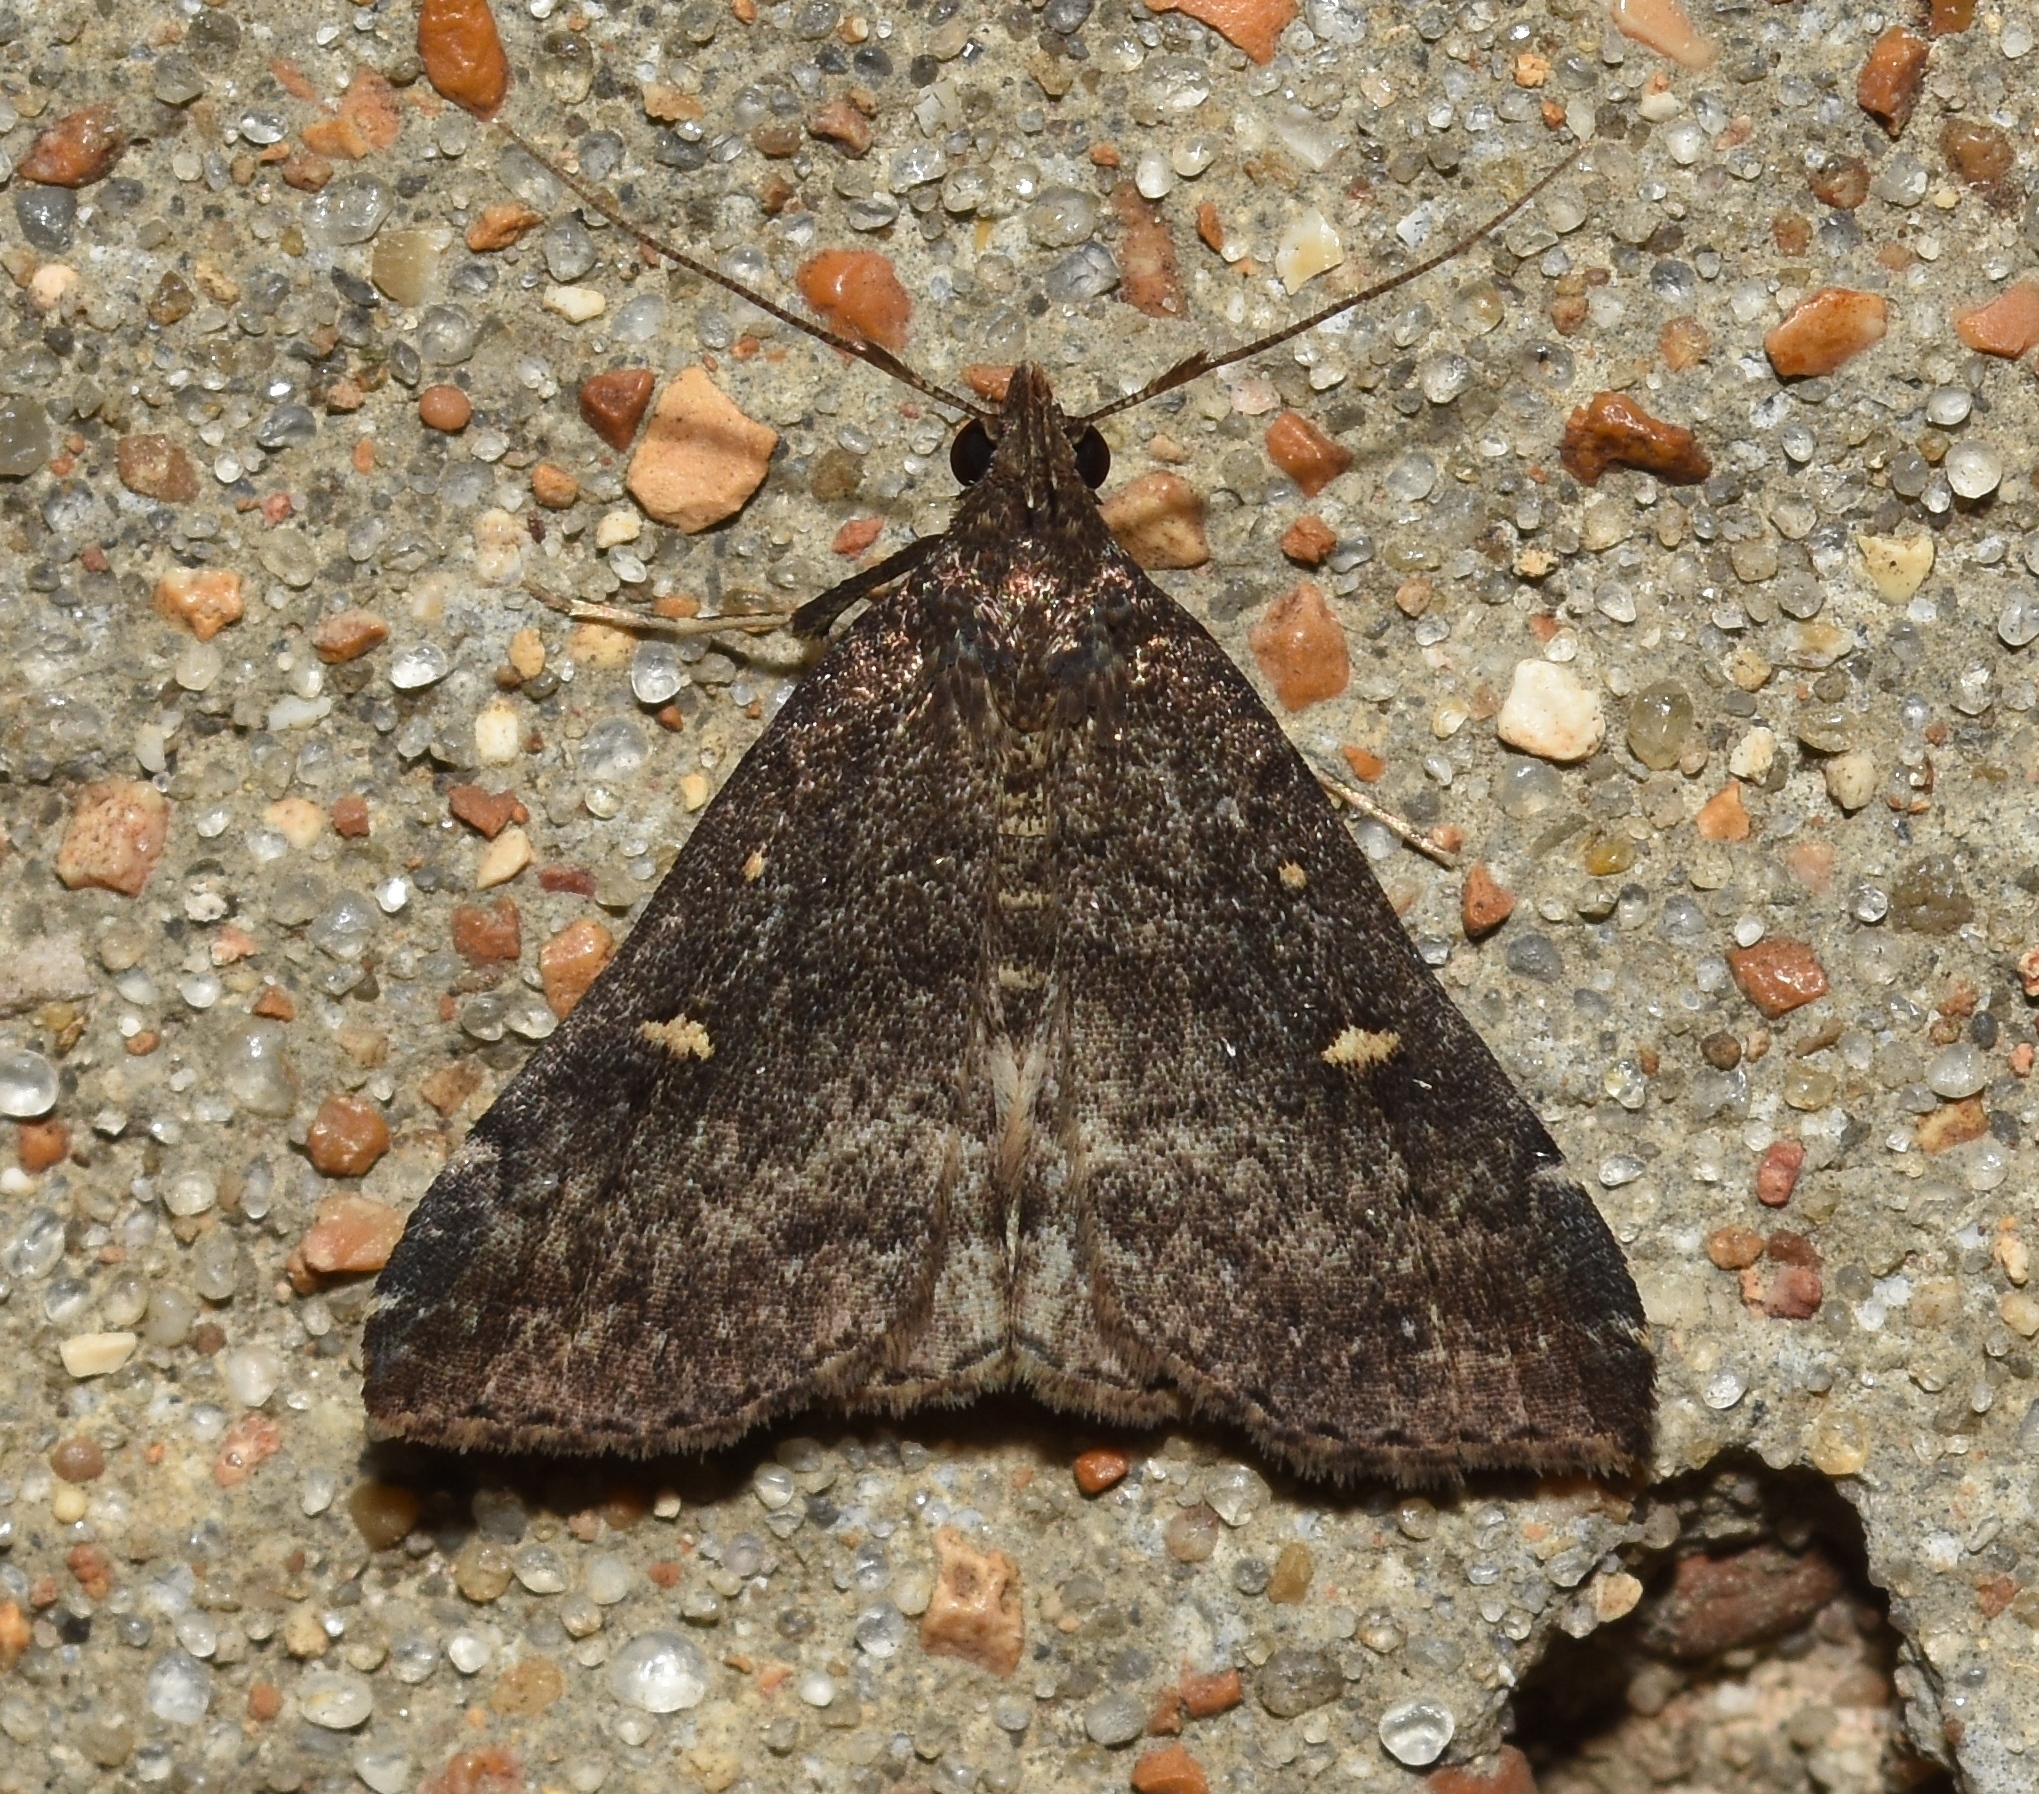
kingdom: Animalia
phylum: Arthropoda
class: Insecta
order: Lepidoptera
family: Erebidae
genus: Tetanolita
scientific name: Tetanolita mynesalis
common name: Smoky tetanolita moth
